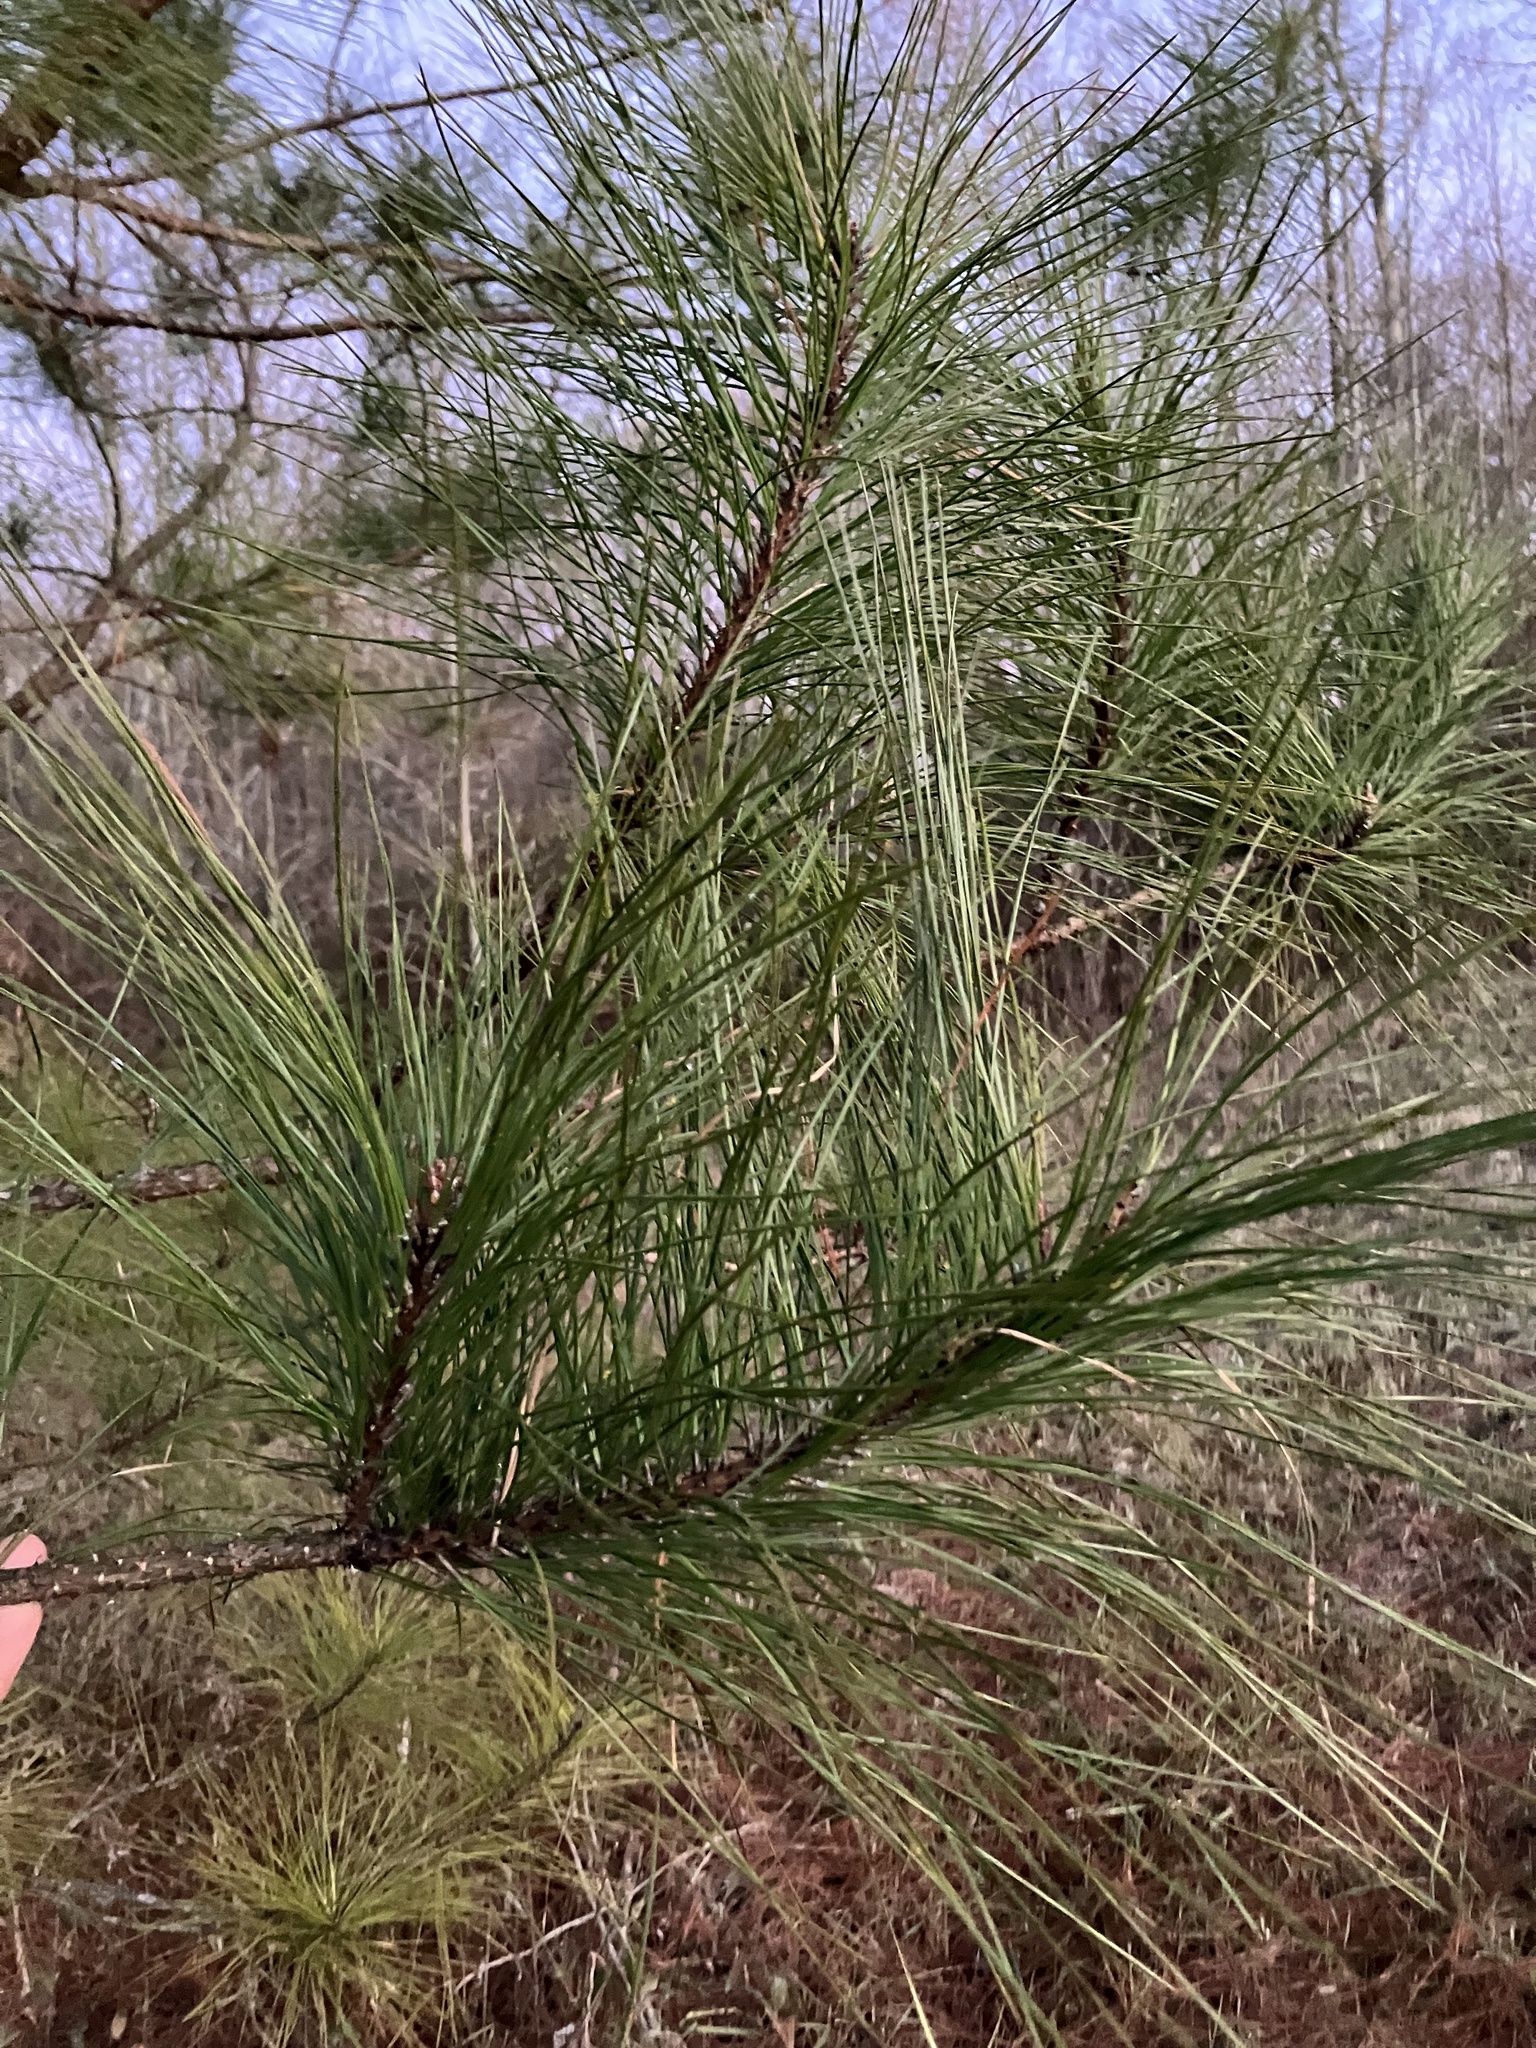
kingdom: Plantae
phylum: Tracheophyta
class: Pinopsida
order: Pinales
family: Pinaceae
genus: Pinus
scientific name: Pinus taeda
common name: Loblolly pine
